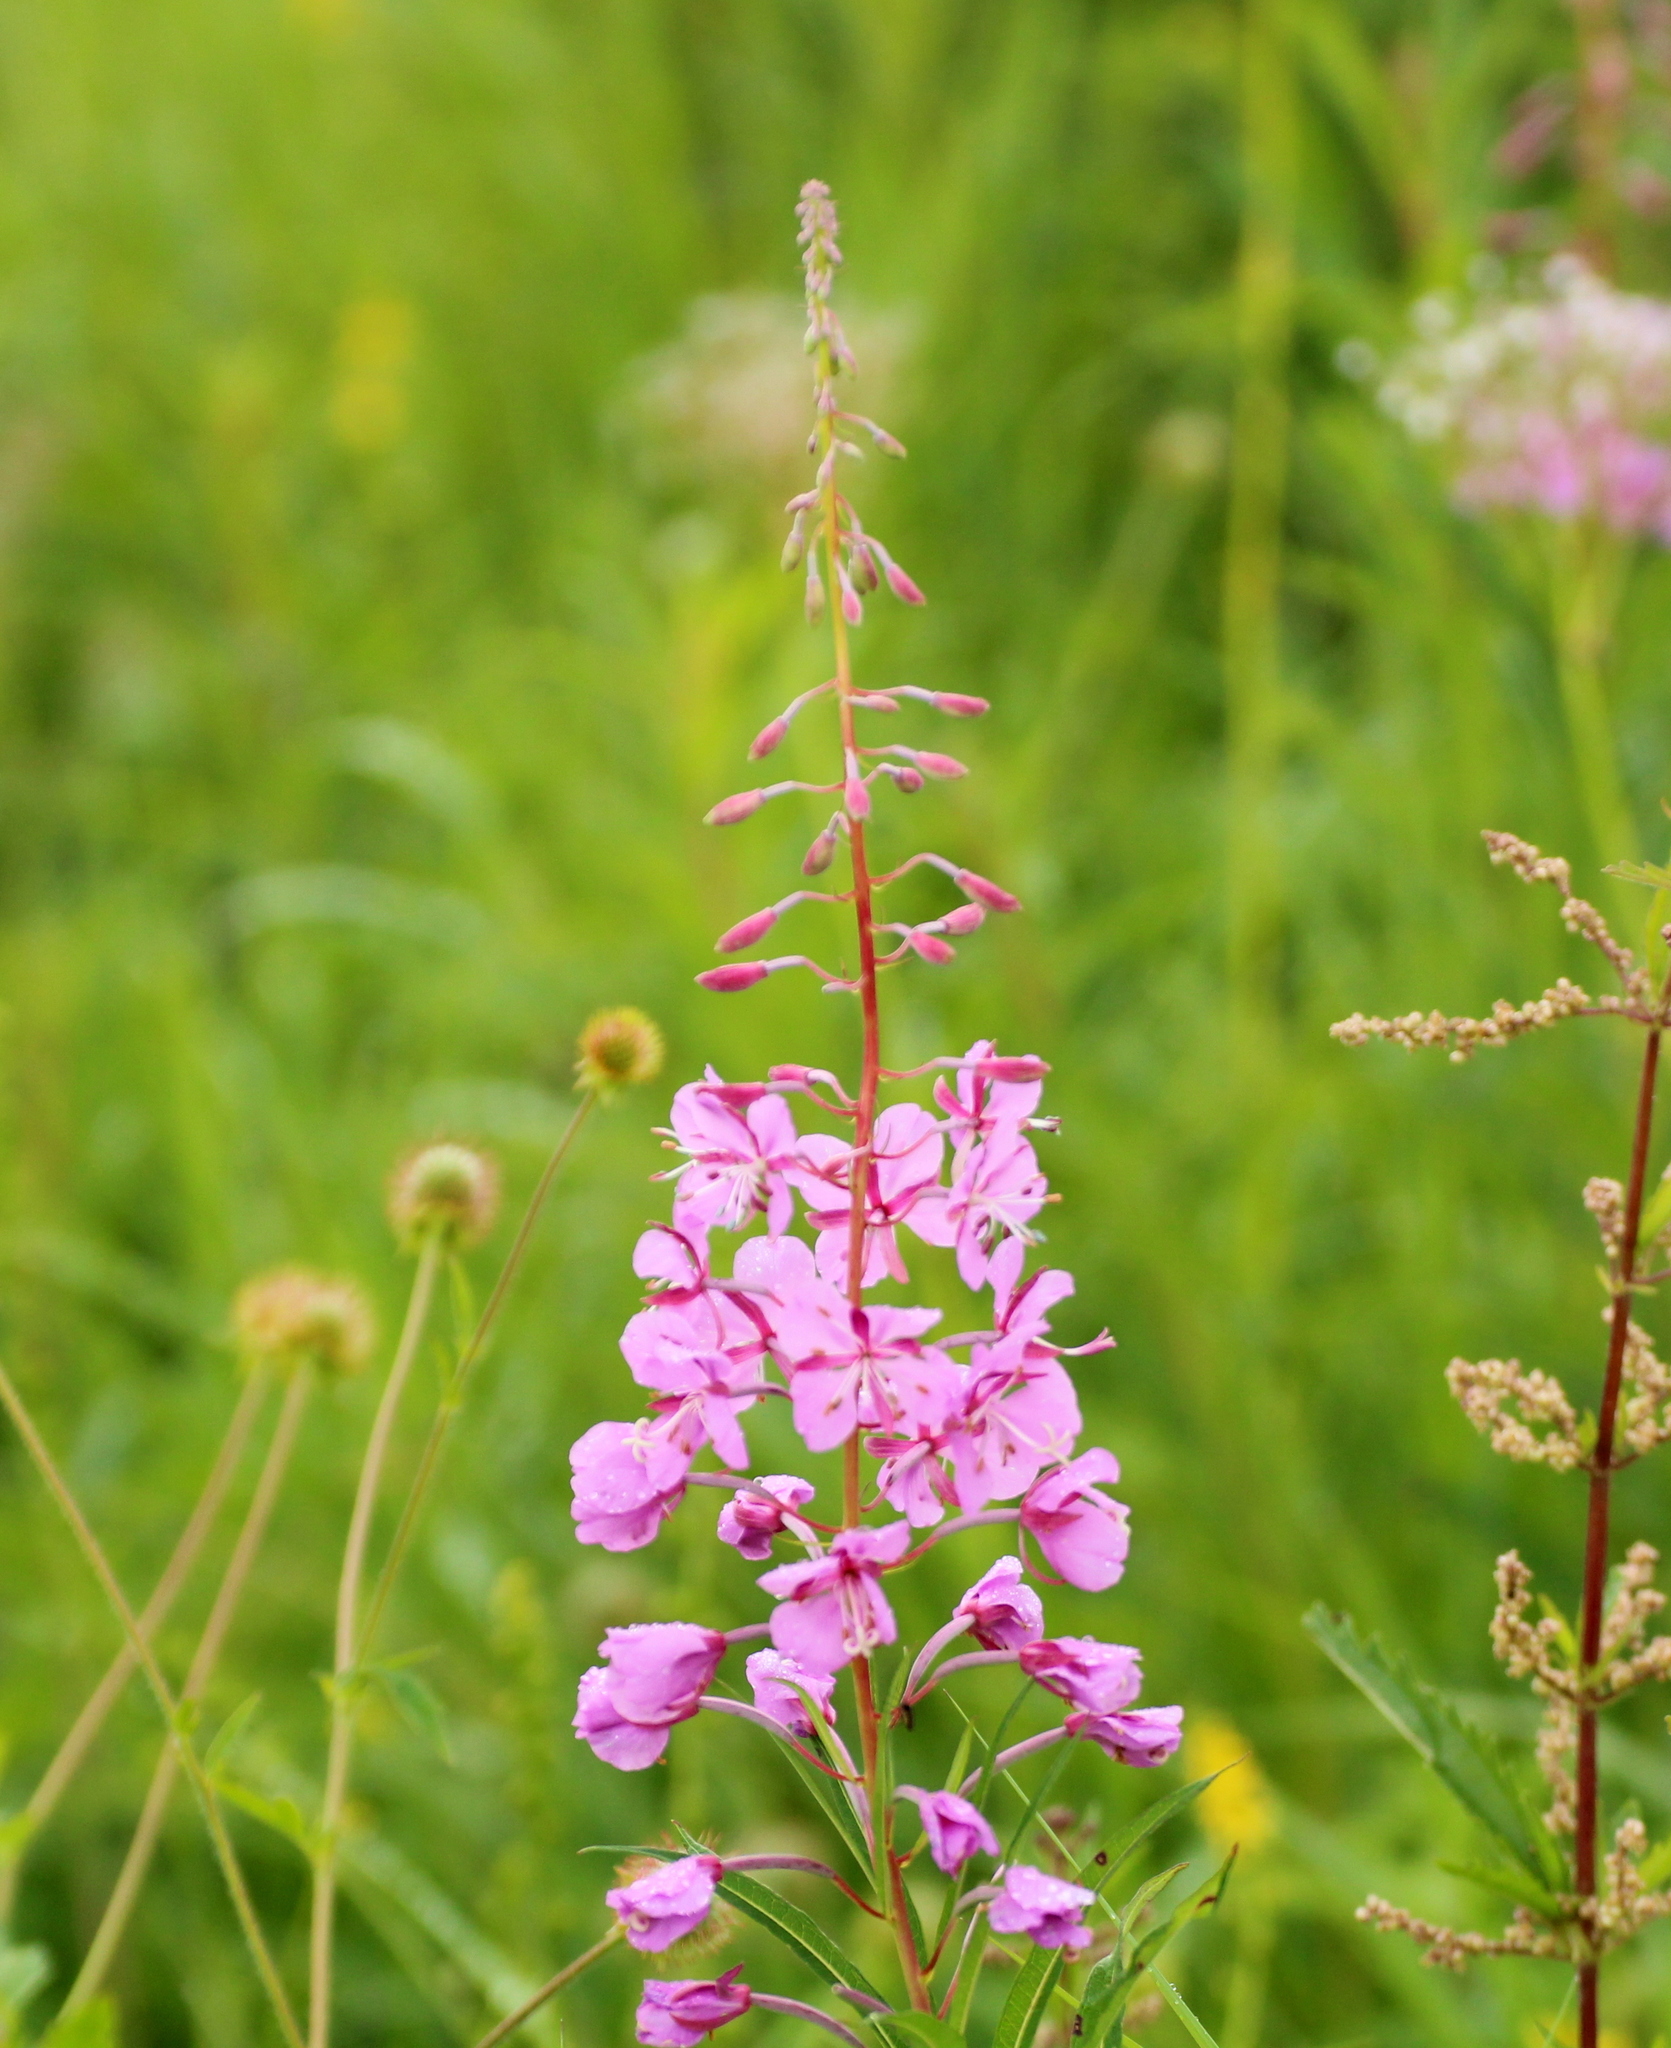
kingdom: Plantae
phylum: Tracheophyta
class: Magnoliopsida
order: Myrtales
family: Onagraceae
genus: Chamaenerion
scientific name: Chamaenerion angustifolium
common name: Fireweed
